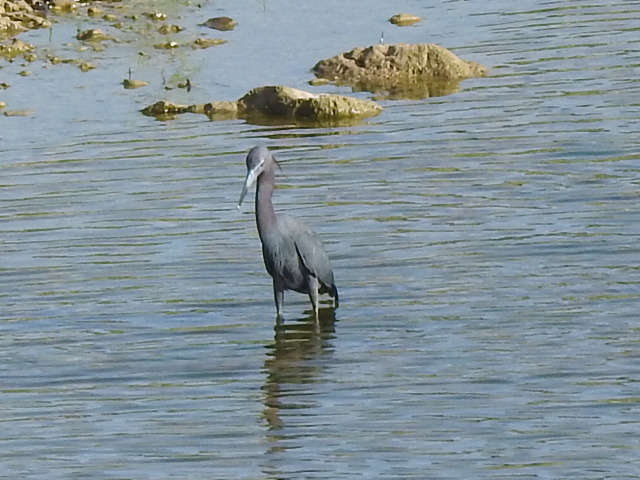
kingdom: Animalia
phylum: Chordata
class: Aves
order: Pelecaniformes
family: Ardeidae
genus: Egretta
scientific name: Egretta caerulea
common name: Little blue heron
